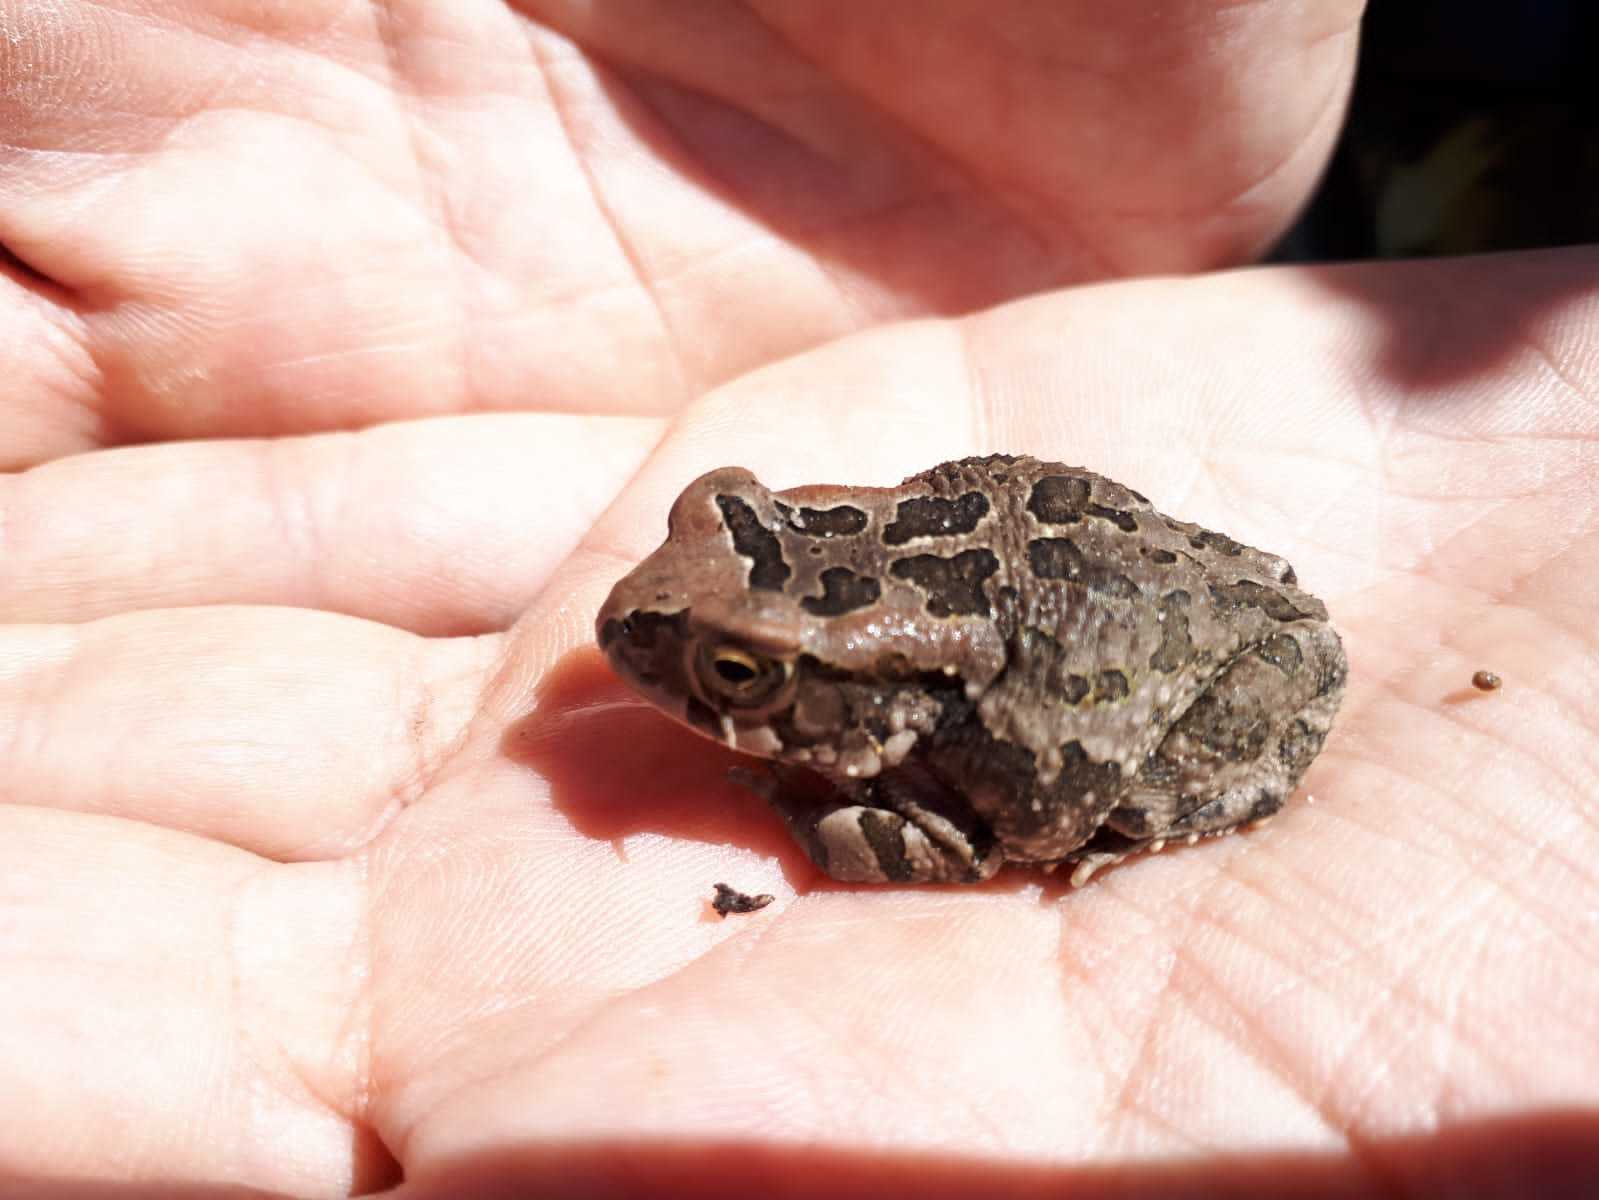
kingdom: Animalia
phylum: Chordata
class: Amphibia
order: Anura
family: Bufonidae
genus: Sclerophrys
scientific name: Sclerophrys capensis
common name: Ranger’s toad
